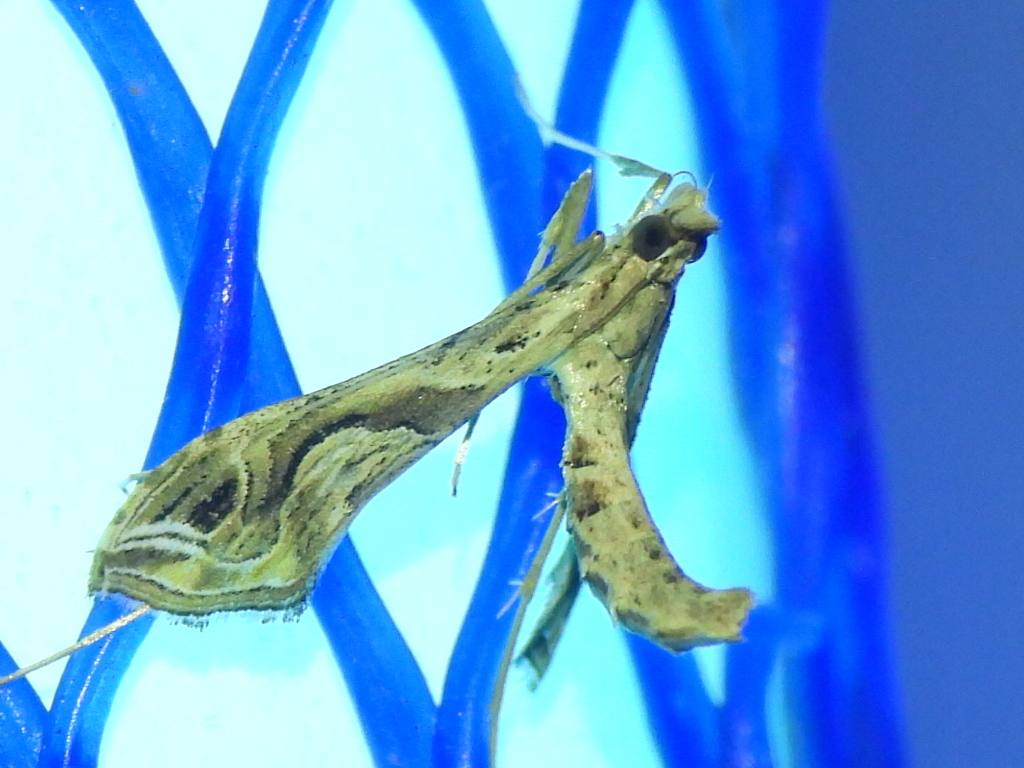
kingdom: Animalia
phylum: Arthropoda
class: Insecta
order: Lepidoptera
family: Crambidae
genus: Lineodes
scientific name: Lineodes integra
